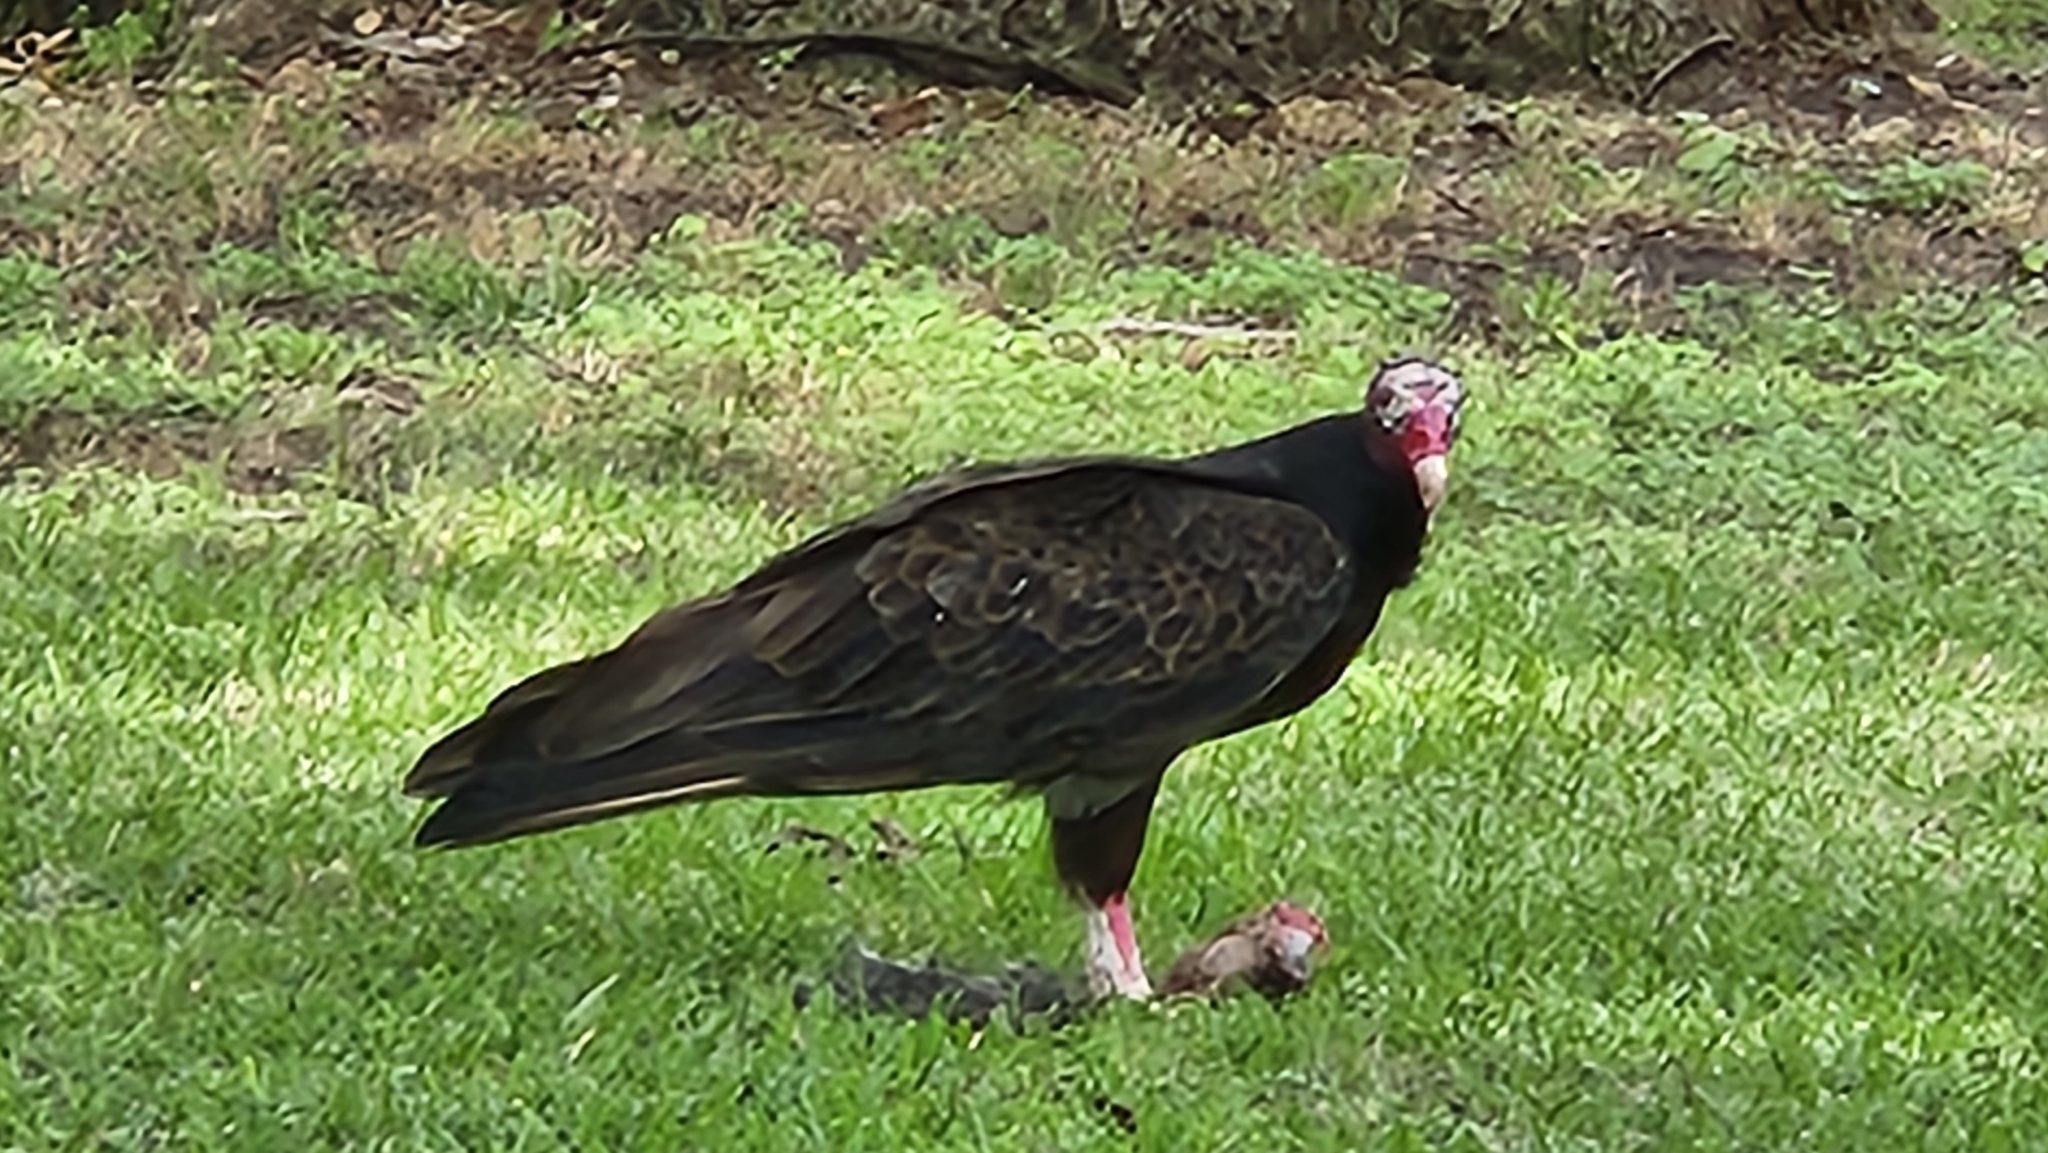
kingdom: Animalia
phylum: Chordata
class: Aves
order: Accipitriformes
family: Cathartidae
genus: Cathartes
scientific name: Cathartes aura
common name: Turkey vulture
